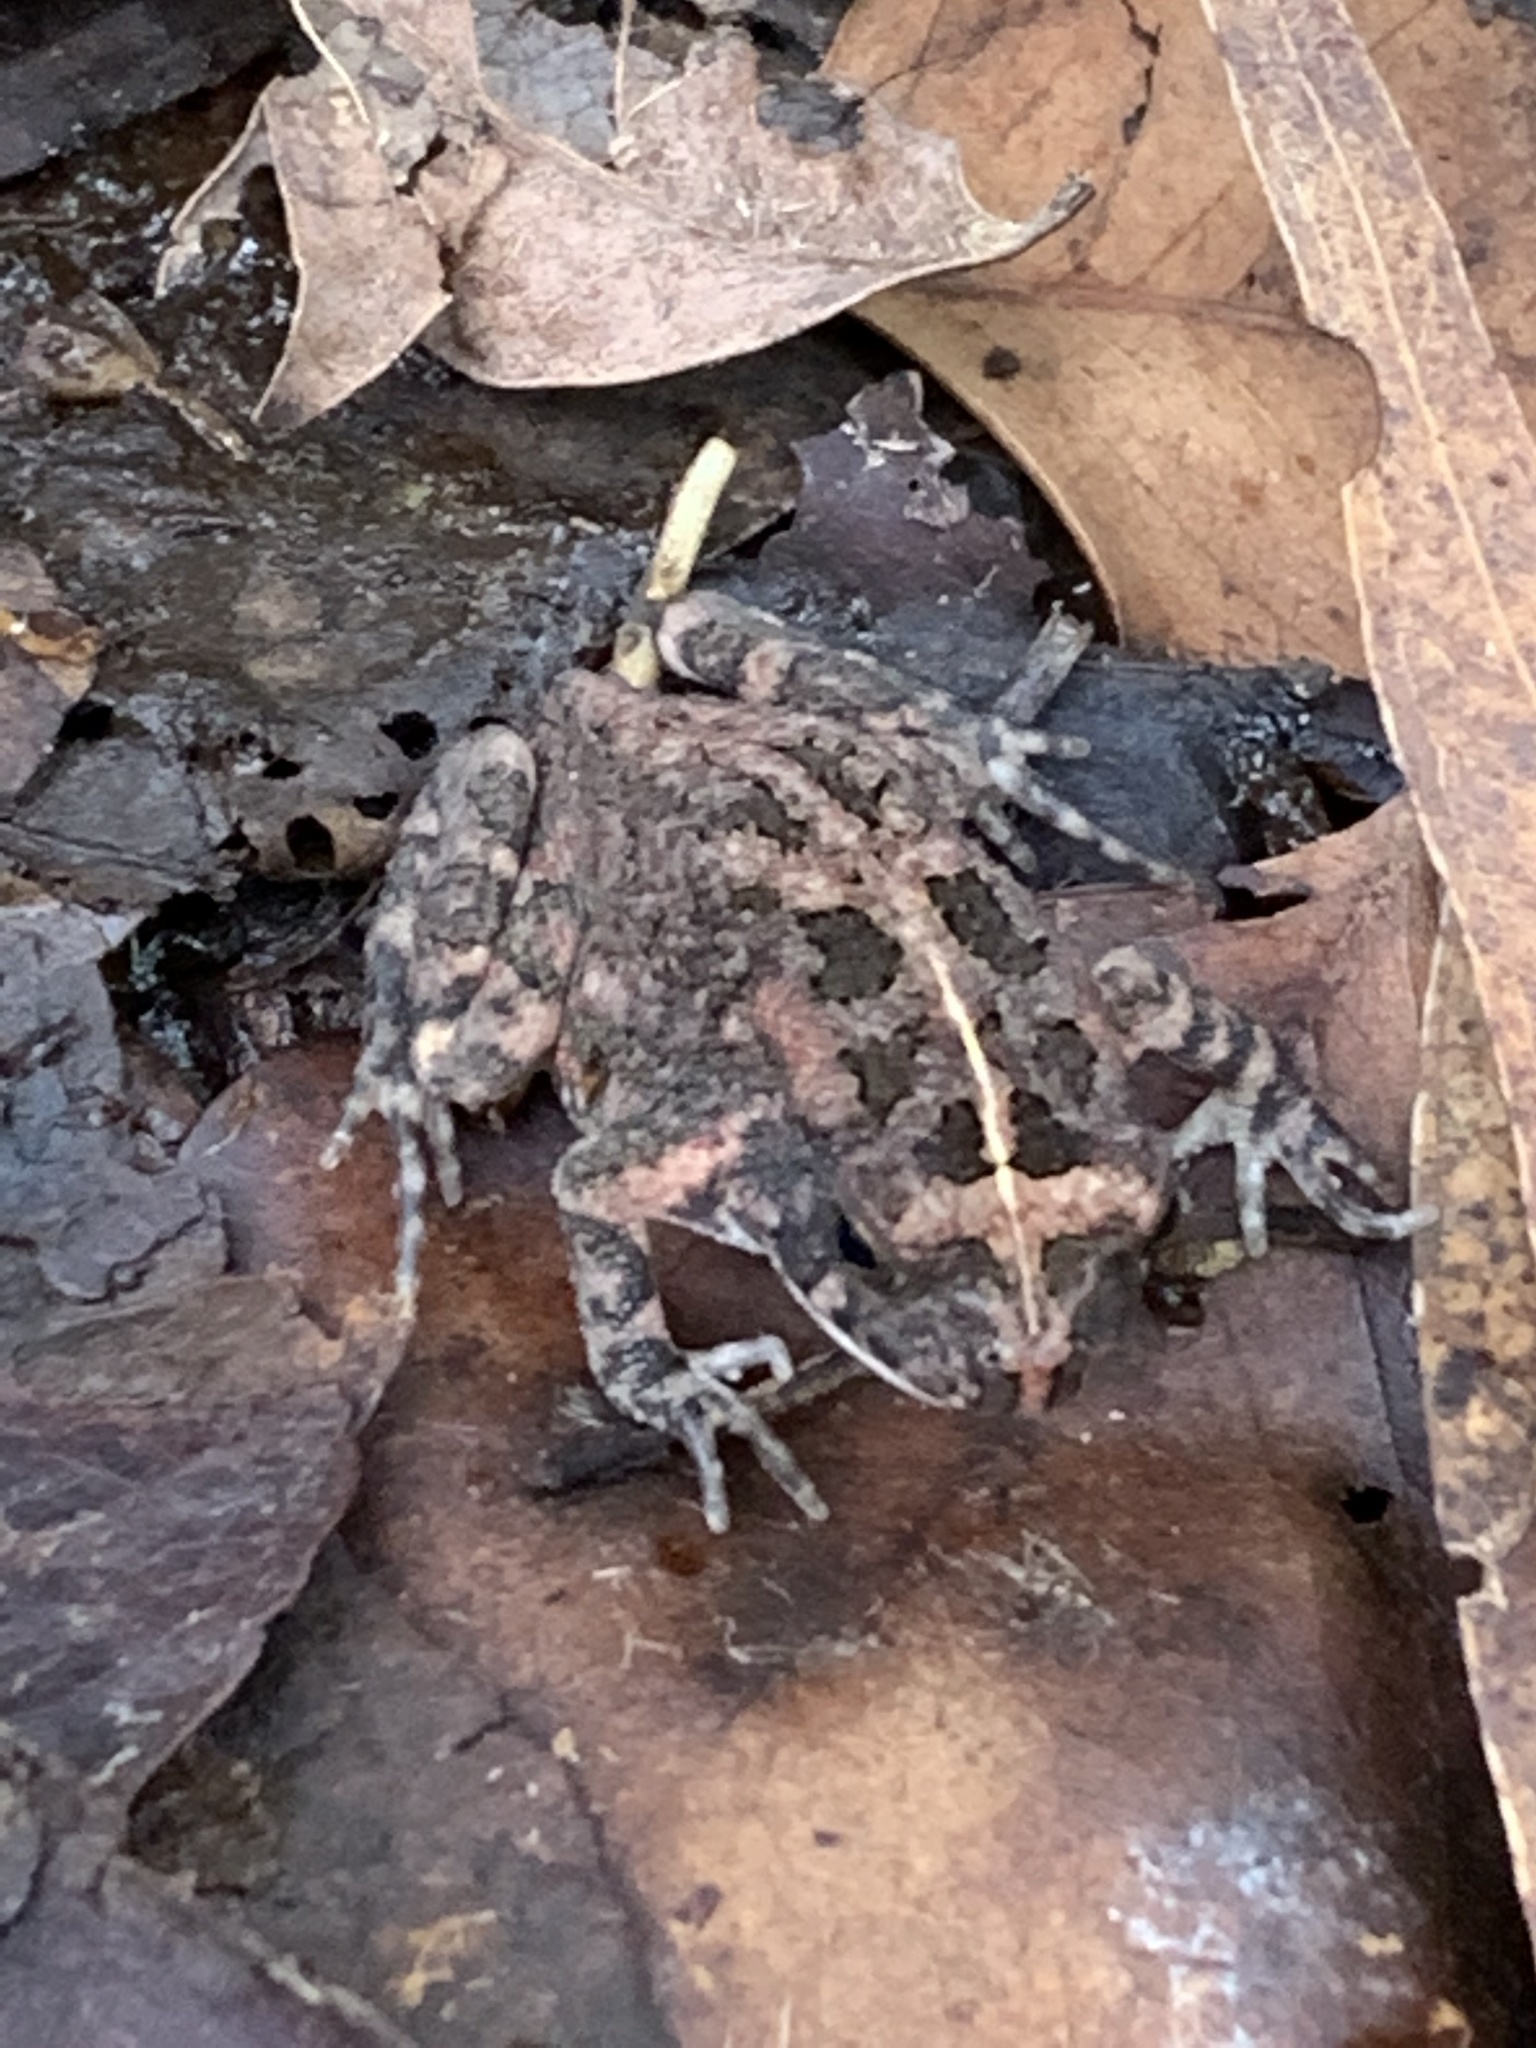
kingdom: Animalia
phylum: Chordata
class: Amphibia
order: Anura
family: Bufonidae
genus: Sclerophrys
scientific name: Sclerophrys gutturalis
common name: African common toad
